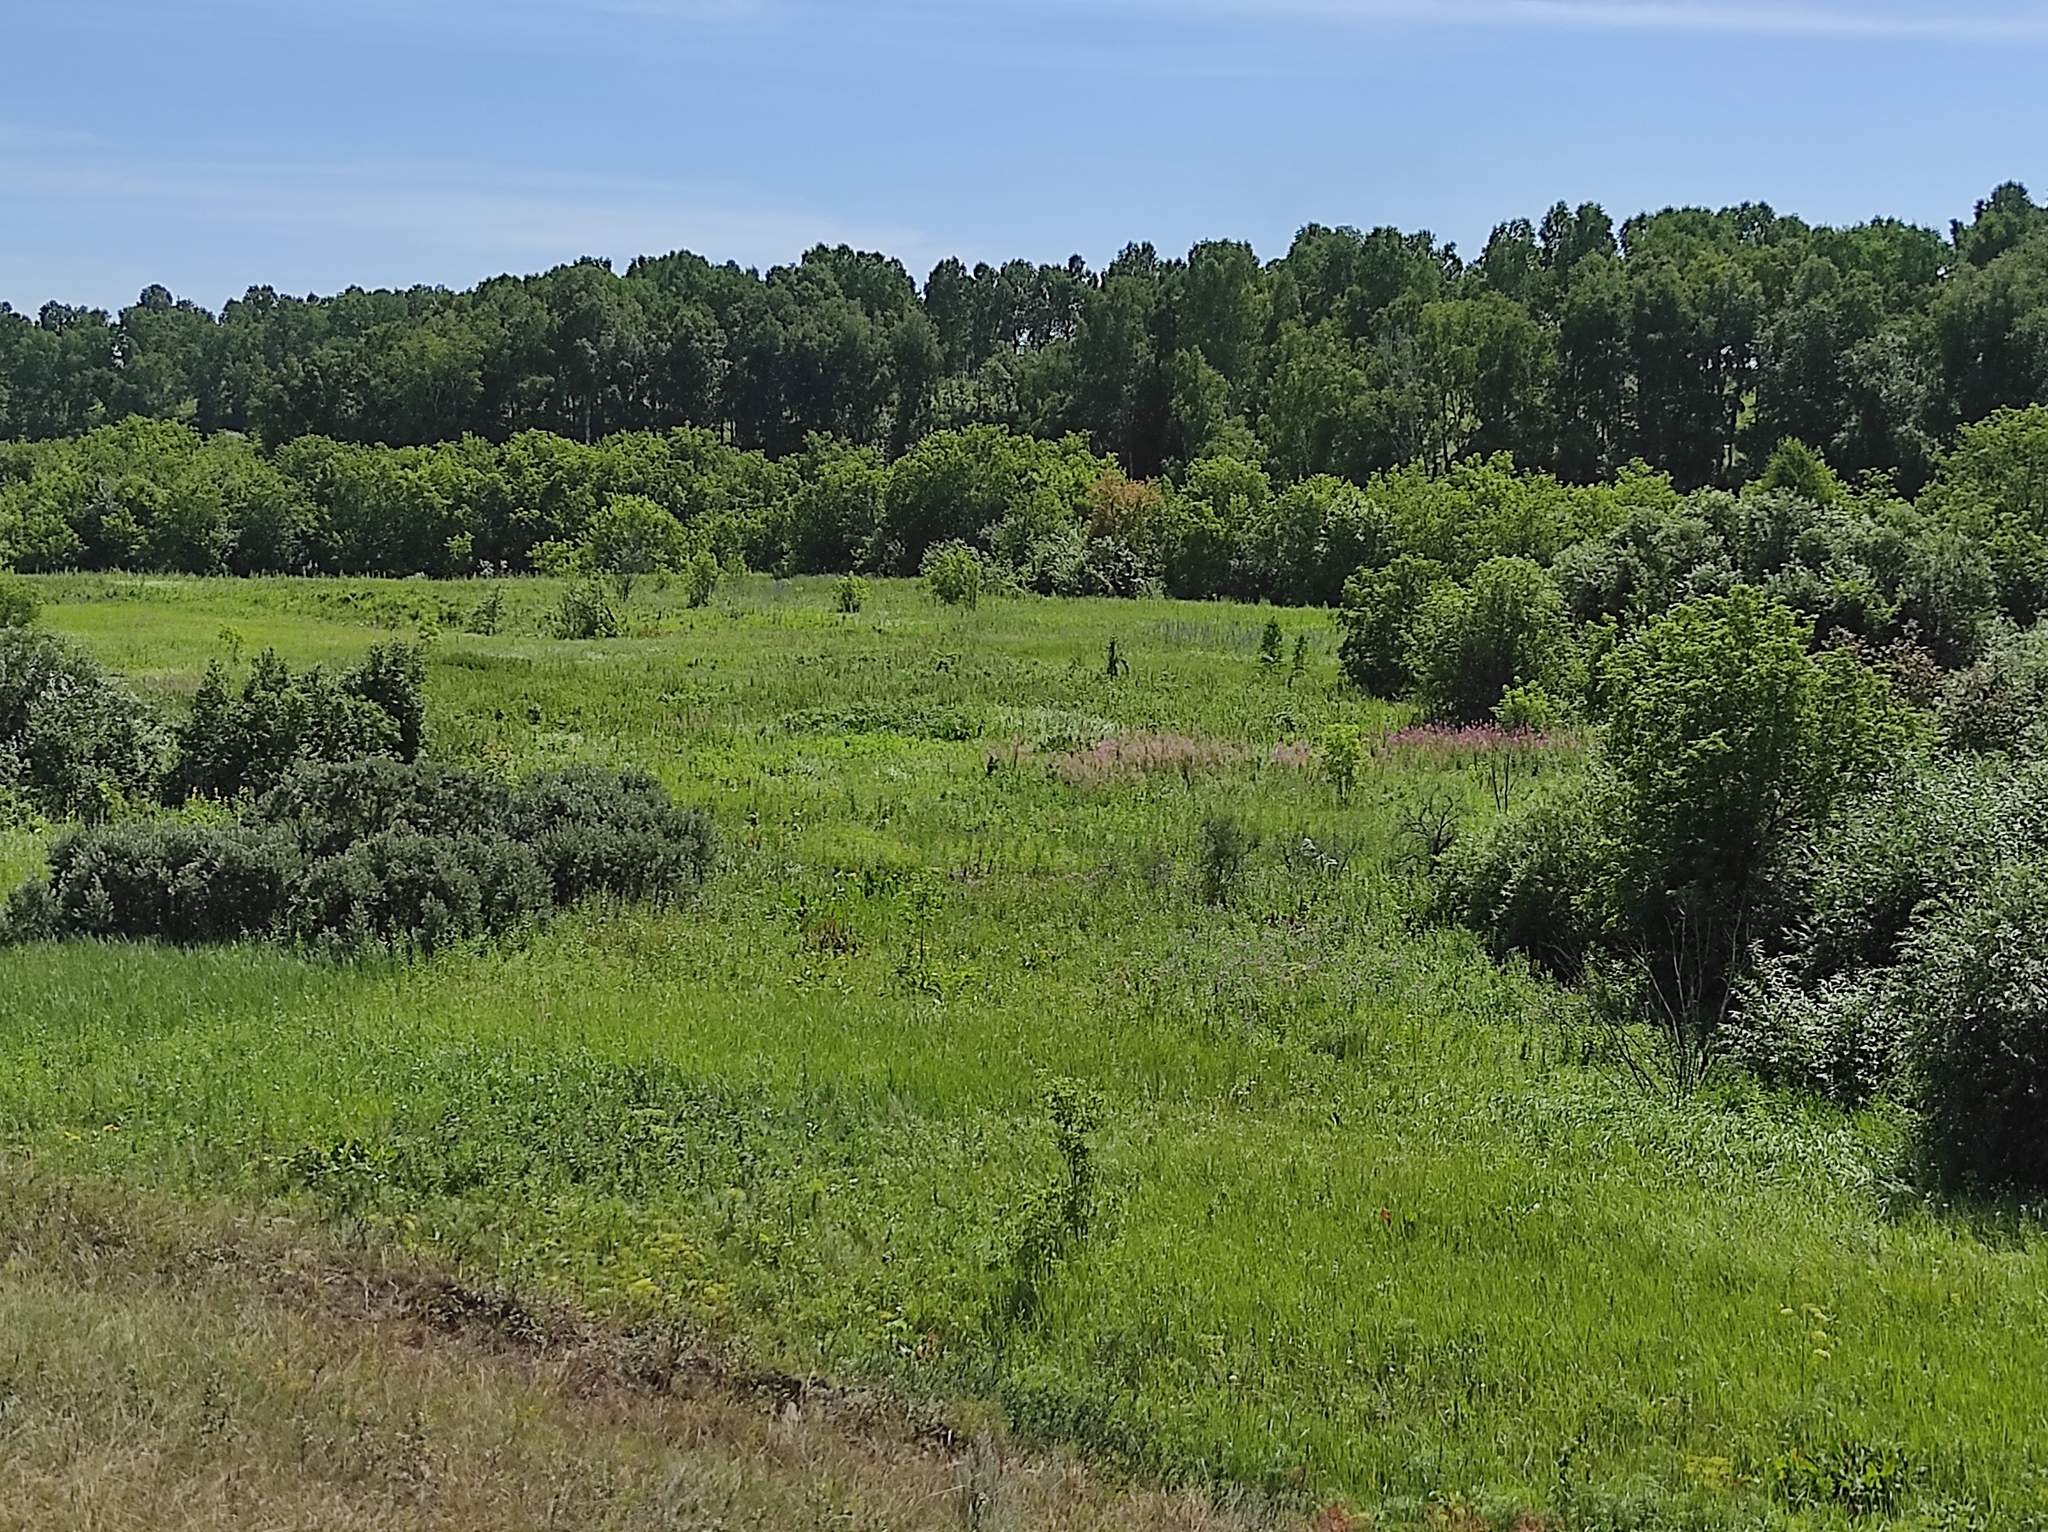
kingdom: Plantae
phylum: Tracheophyta
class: Magnoliopsida
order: Fagales
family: Betulaceae
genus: Betula
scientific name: Betula pendula
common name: Silver birch
